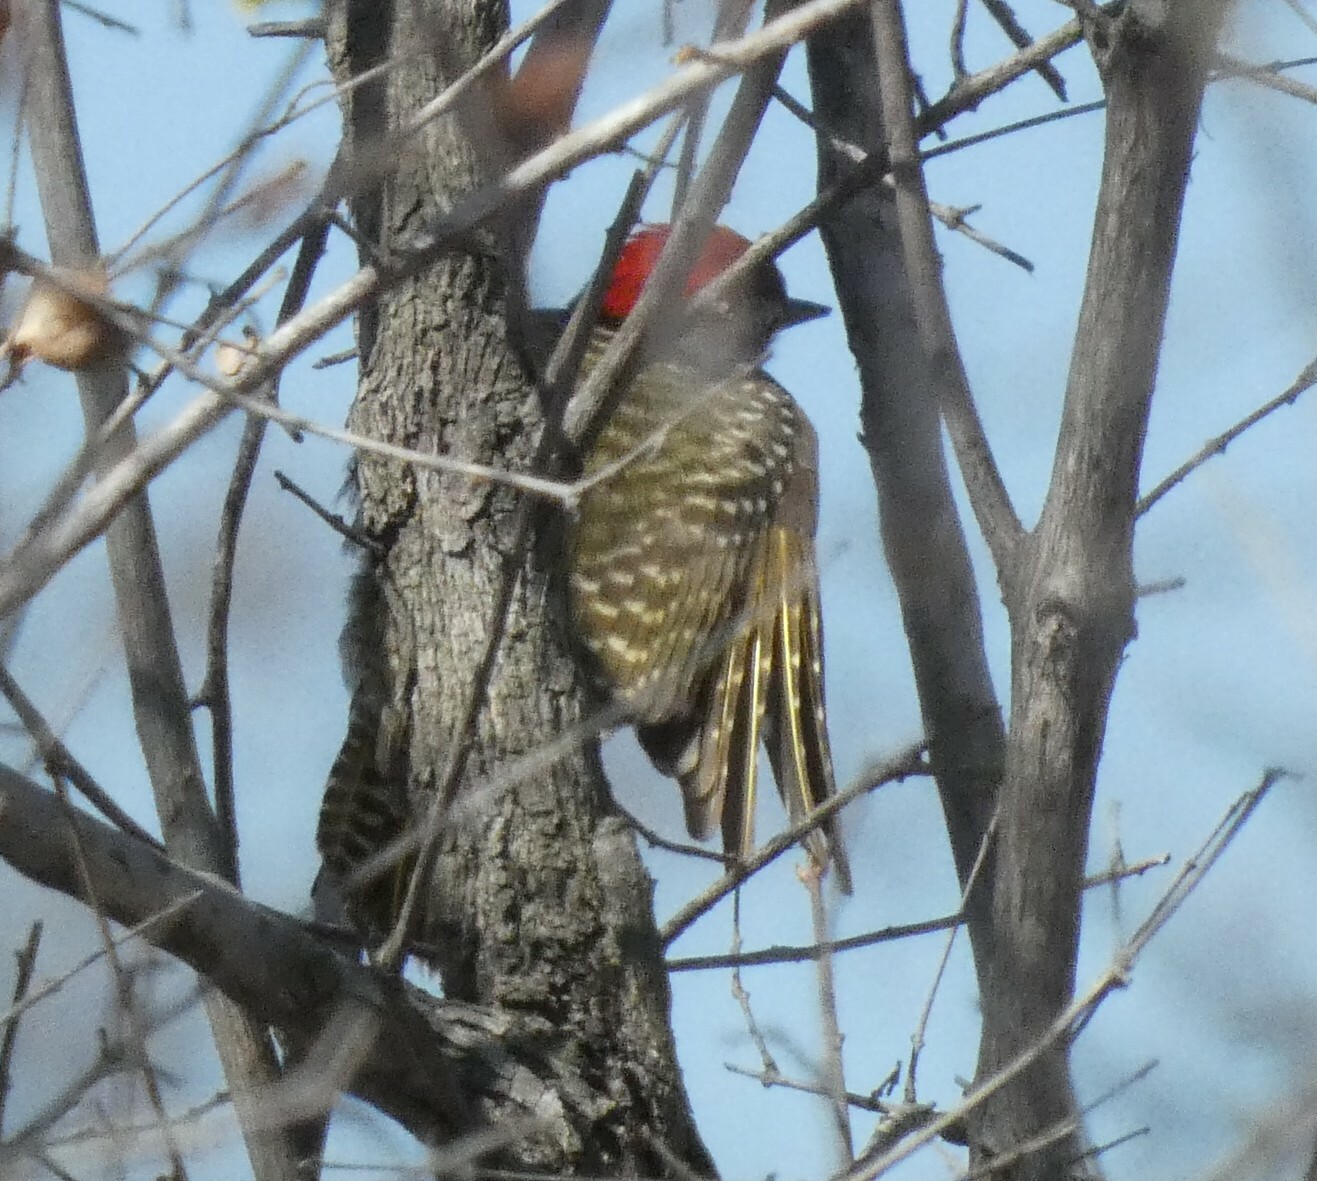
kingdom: Animalia
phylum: Chordata
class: Aves
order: Piciformes
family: Picidae
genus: Dendropicos
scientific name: Dendropicos fuscescens
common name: Cardinal woodpecker
